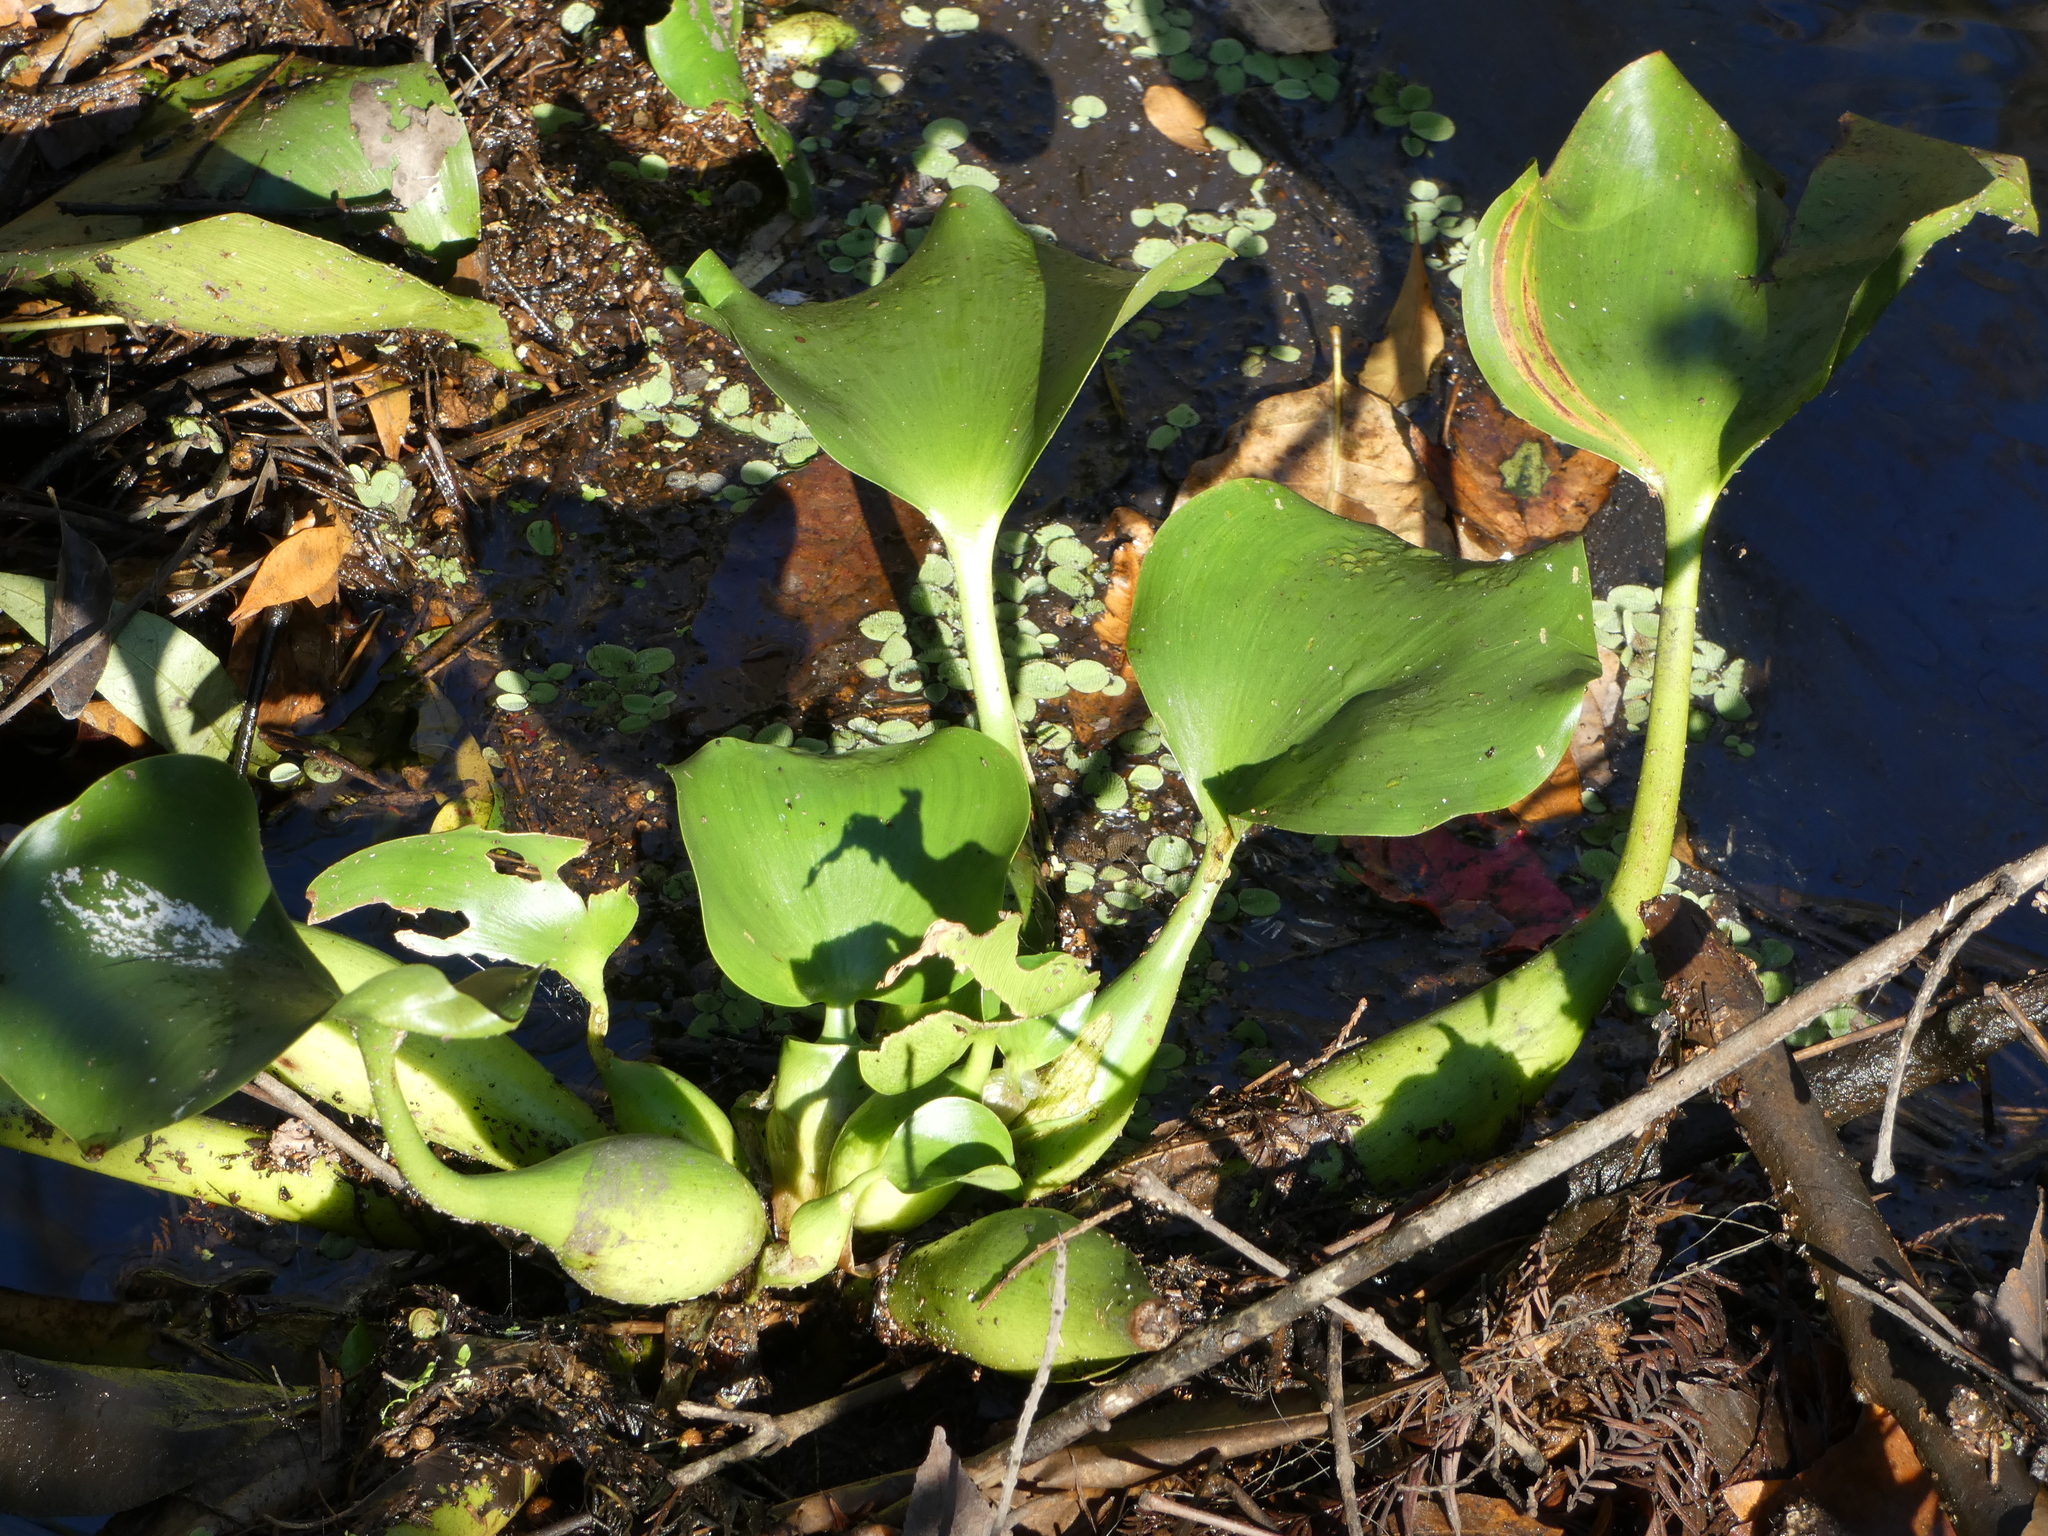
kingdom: Plantae
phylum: Tracheophyta
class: Liliopsida
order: Commelinales
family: Pontederiaceae
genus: Pontederia
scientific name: Pontederia crassipes
